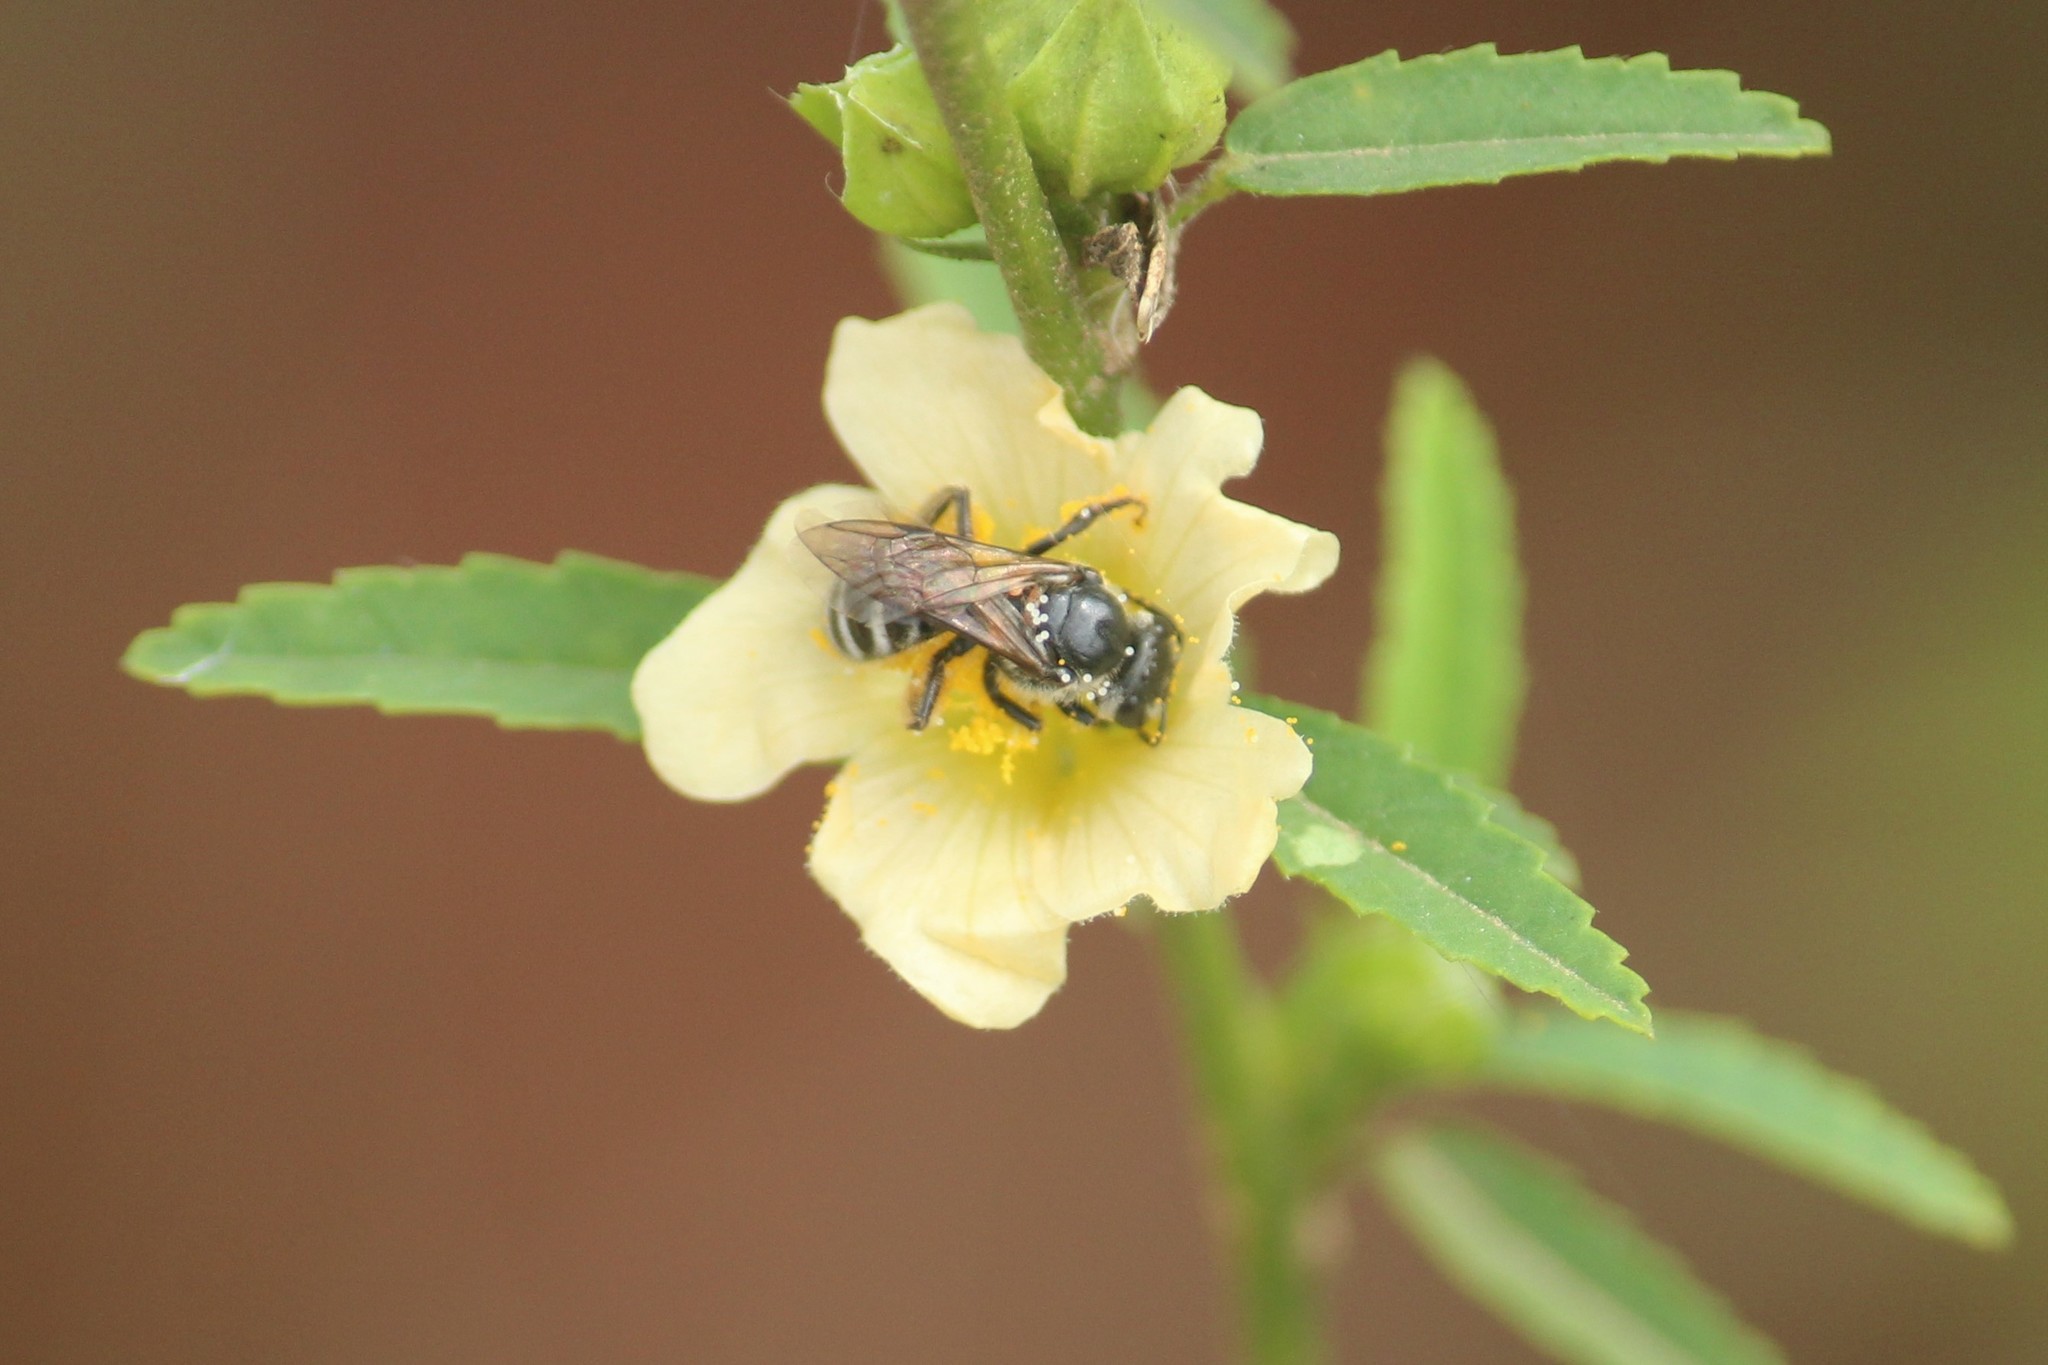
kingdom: Animalia
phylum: Arthropoda
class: Insecta
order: Hymenoptera
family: Halictidae
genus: Lasioglossum
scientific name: Lasioglossum albescens
